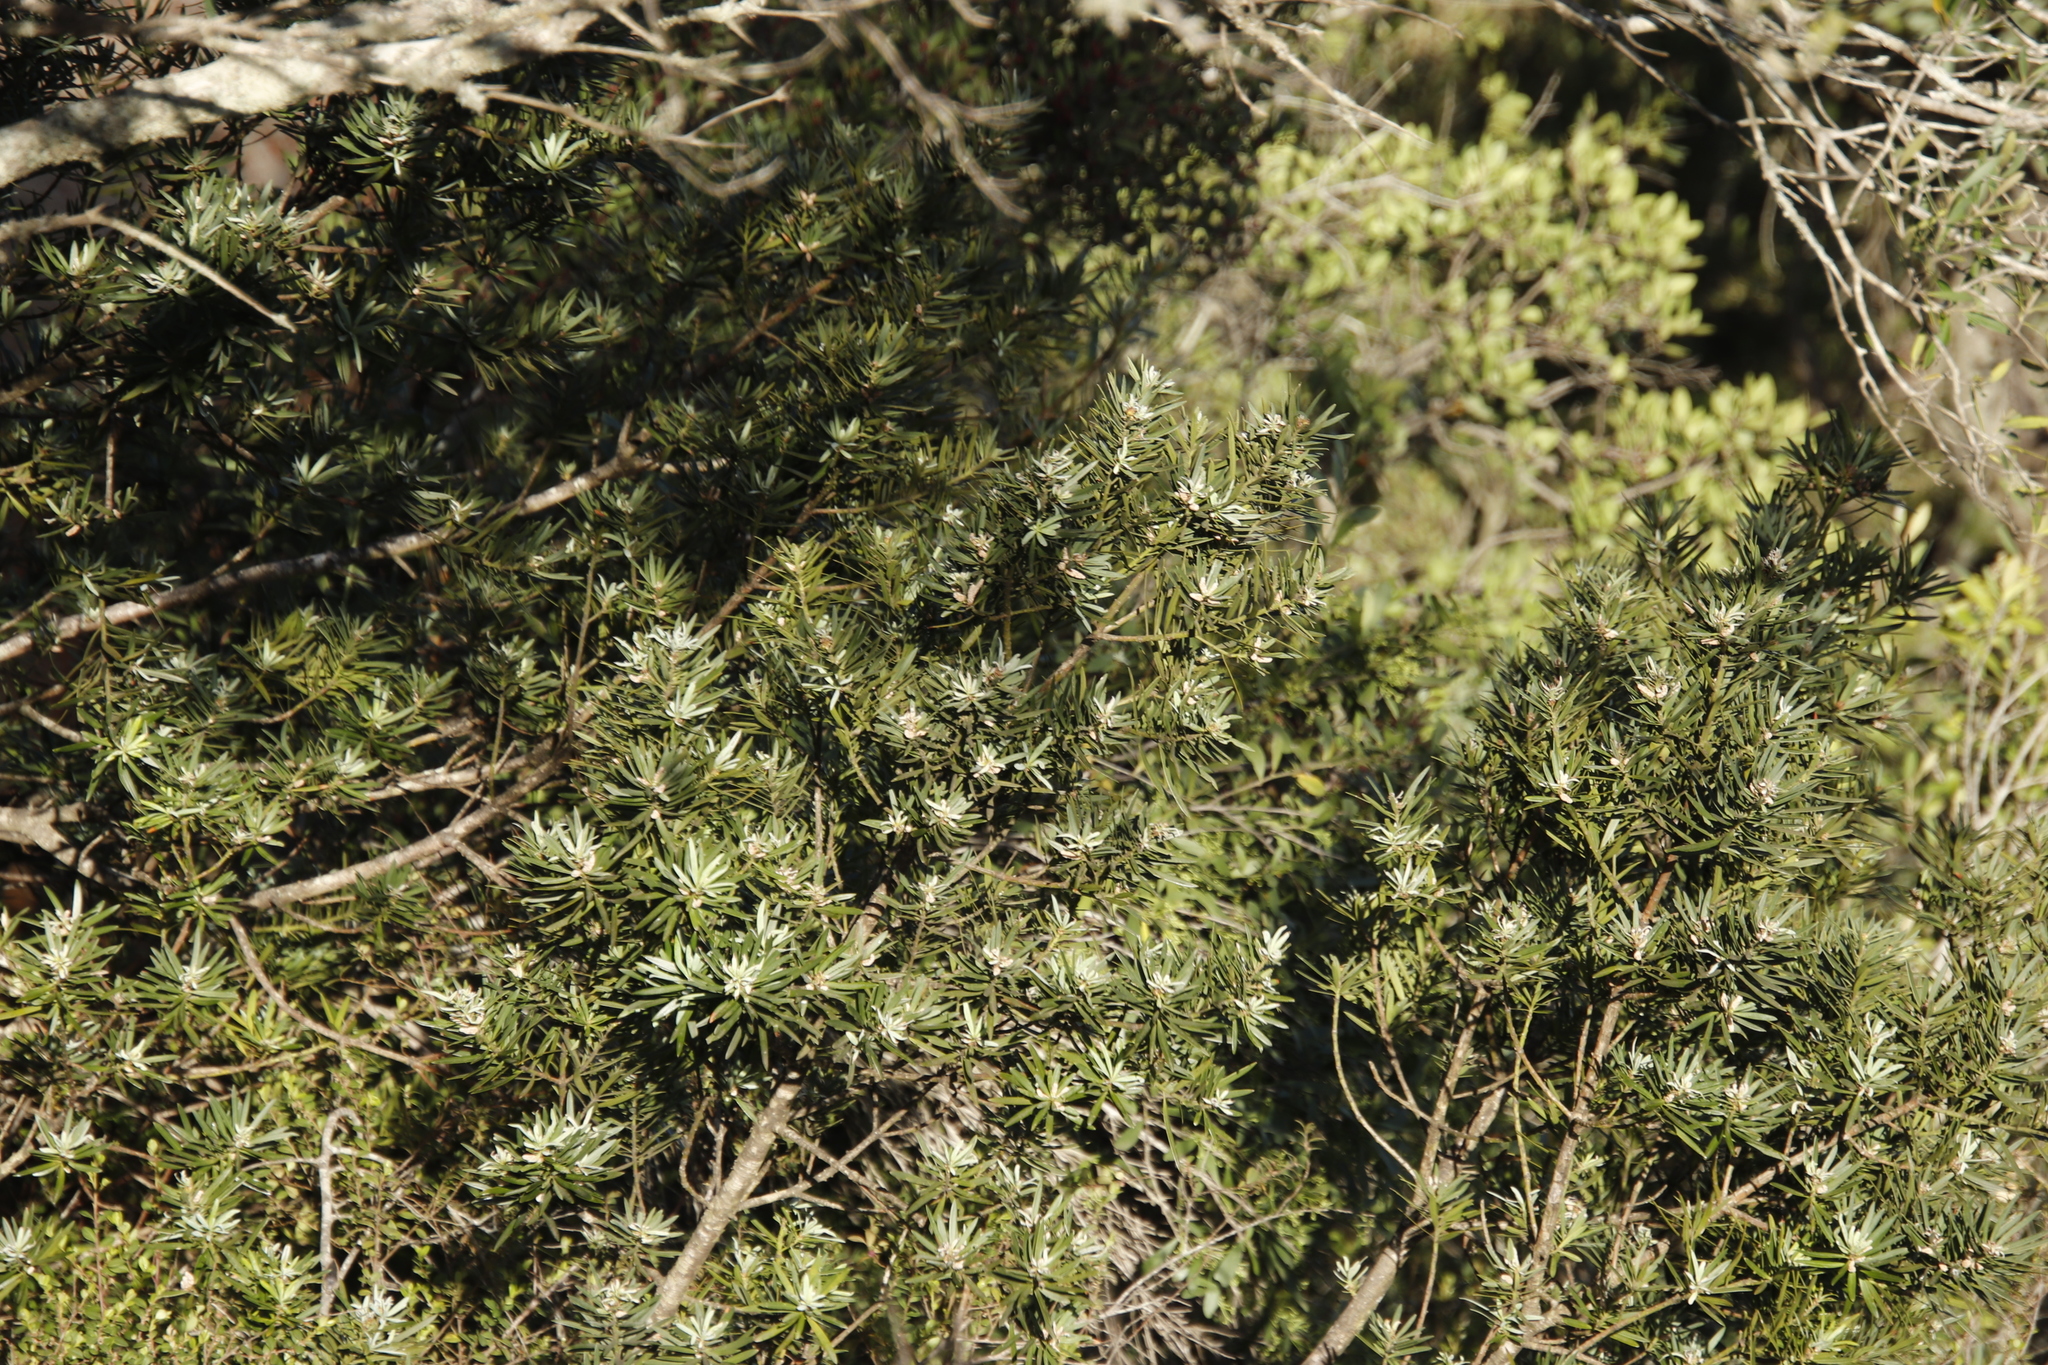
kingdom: Plantae
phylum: Tracheophyta
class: Pinopsida
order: Pinales
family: Podocarpaceae
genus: Podocarpus
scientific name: Podocarpus elongatus
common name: Breede river yellowwood
